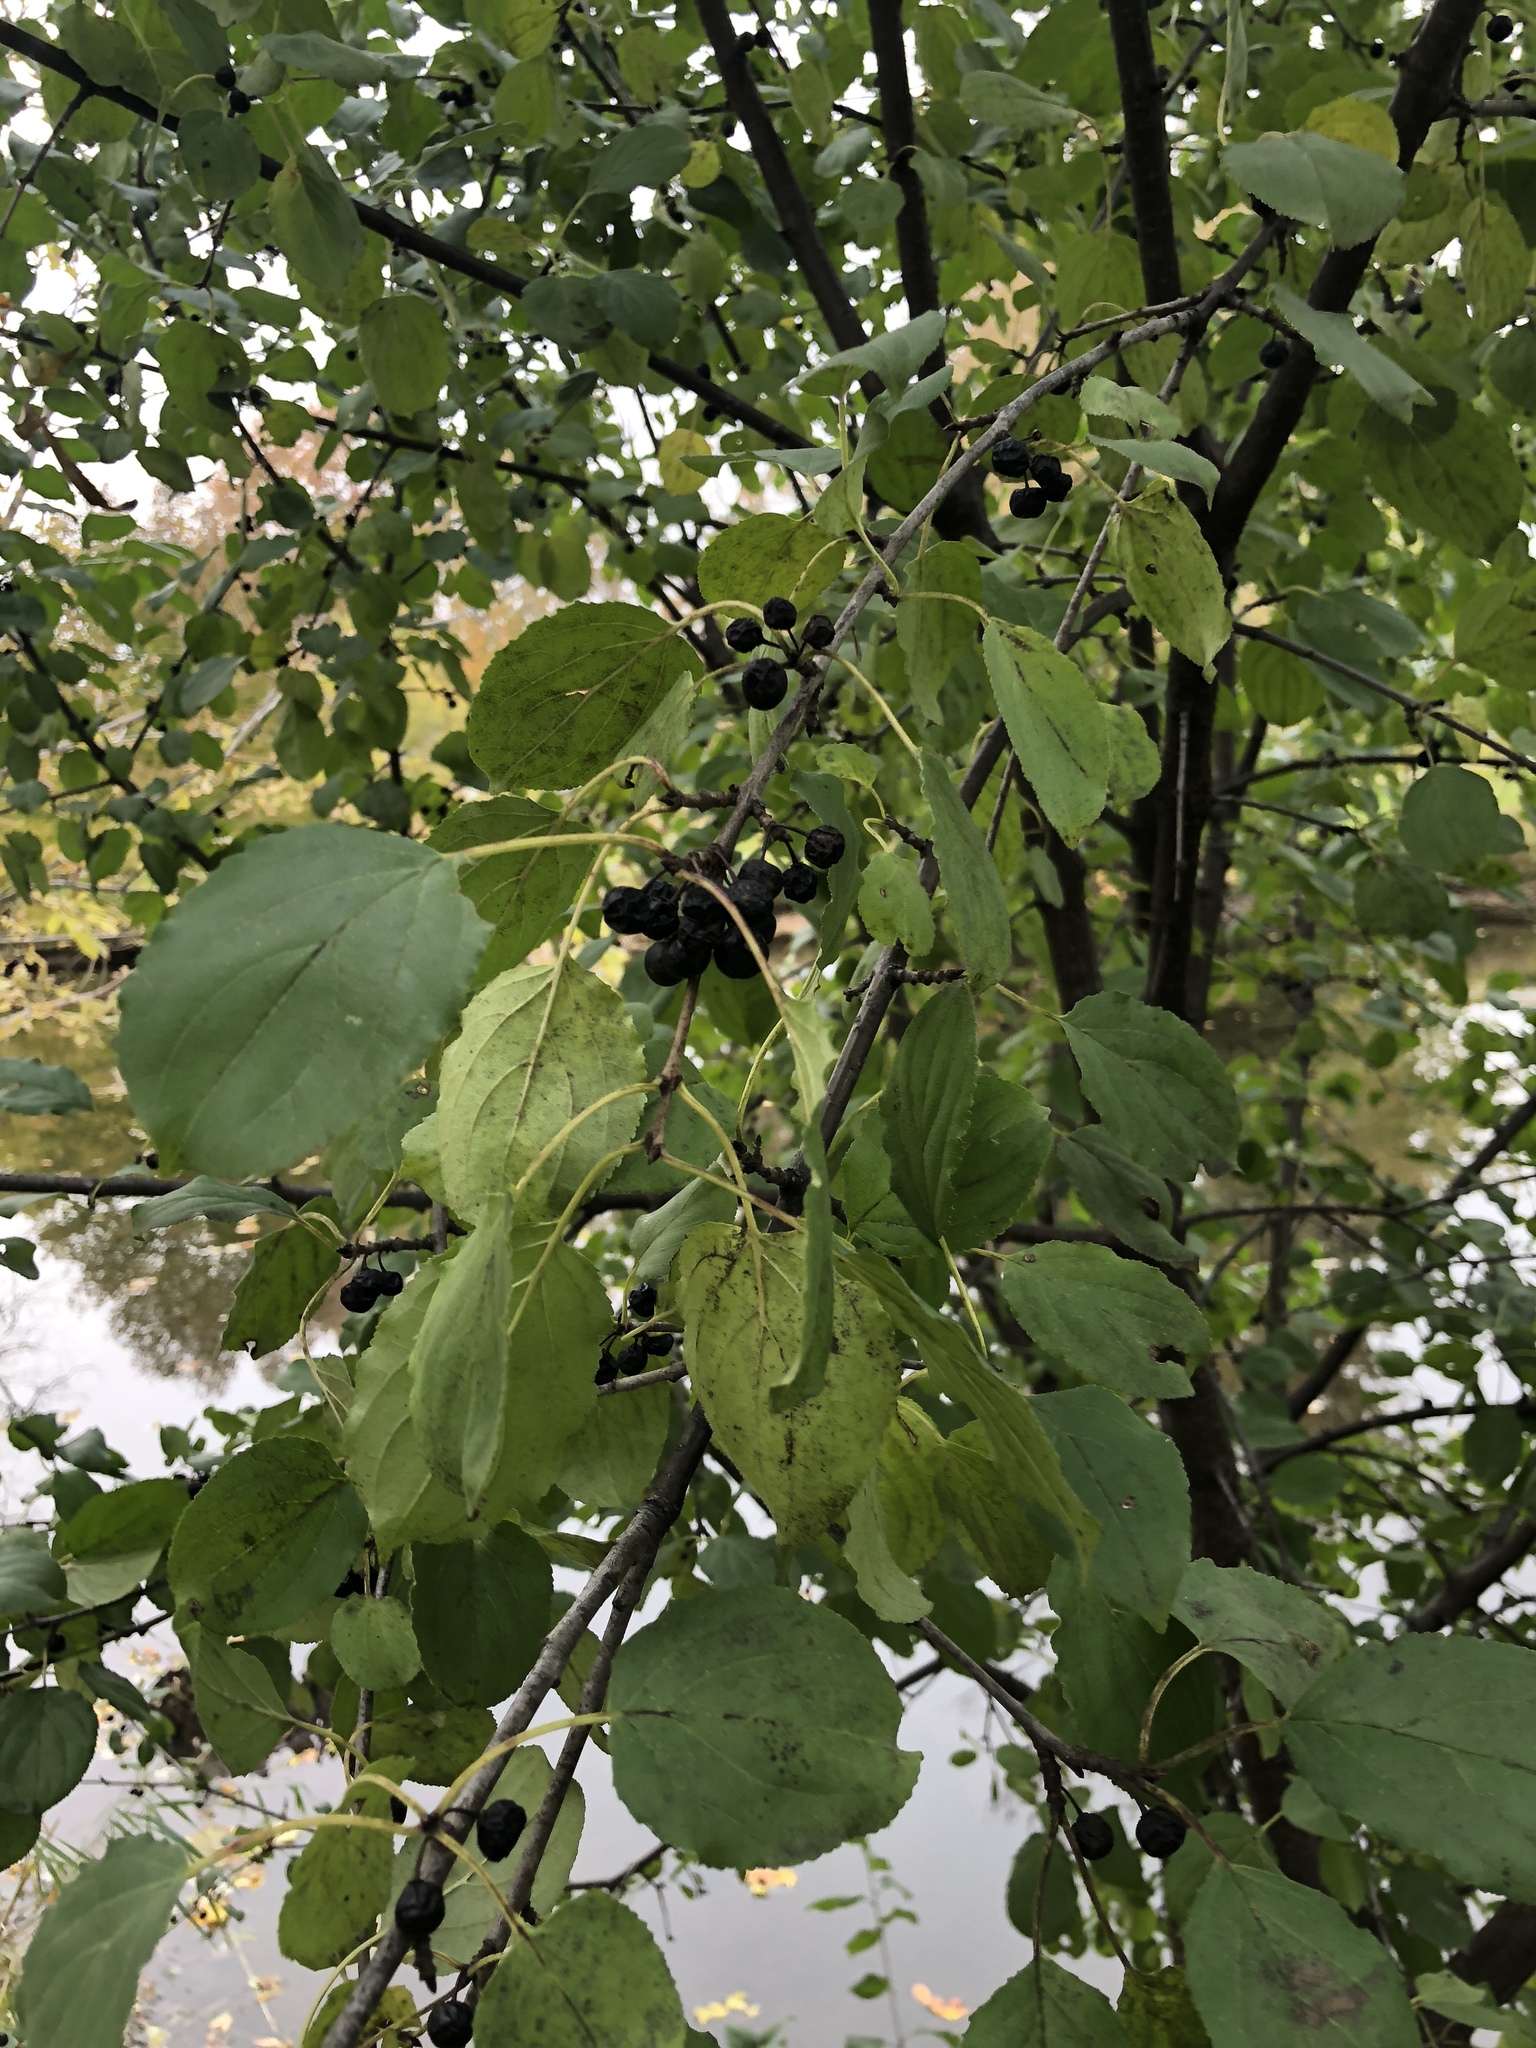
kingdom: Plantae
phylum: Tracheophyta
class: Magnoliopsida
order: Rosales
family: Rhamnaceae
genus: Rhamnus
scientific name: Rhamnus cathartica
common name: Common buckthorn
